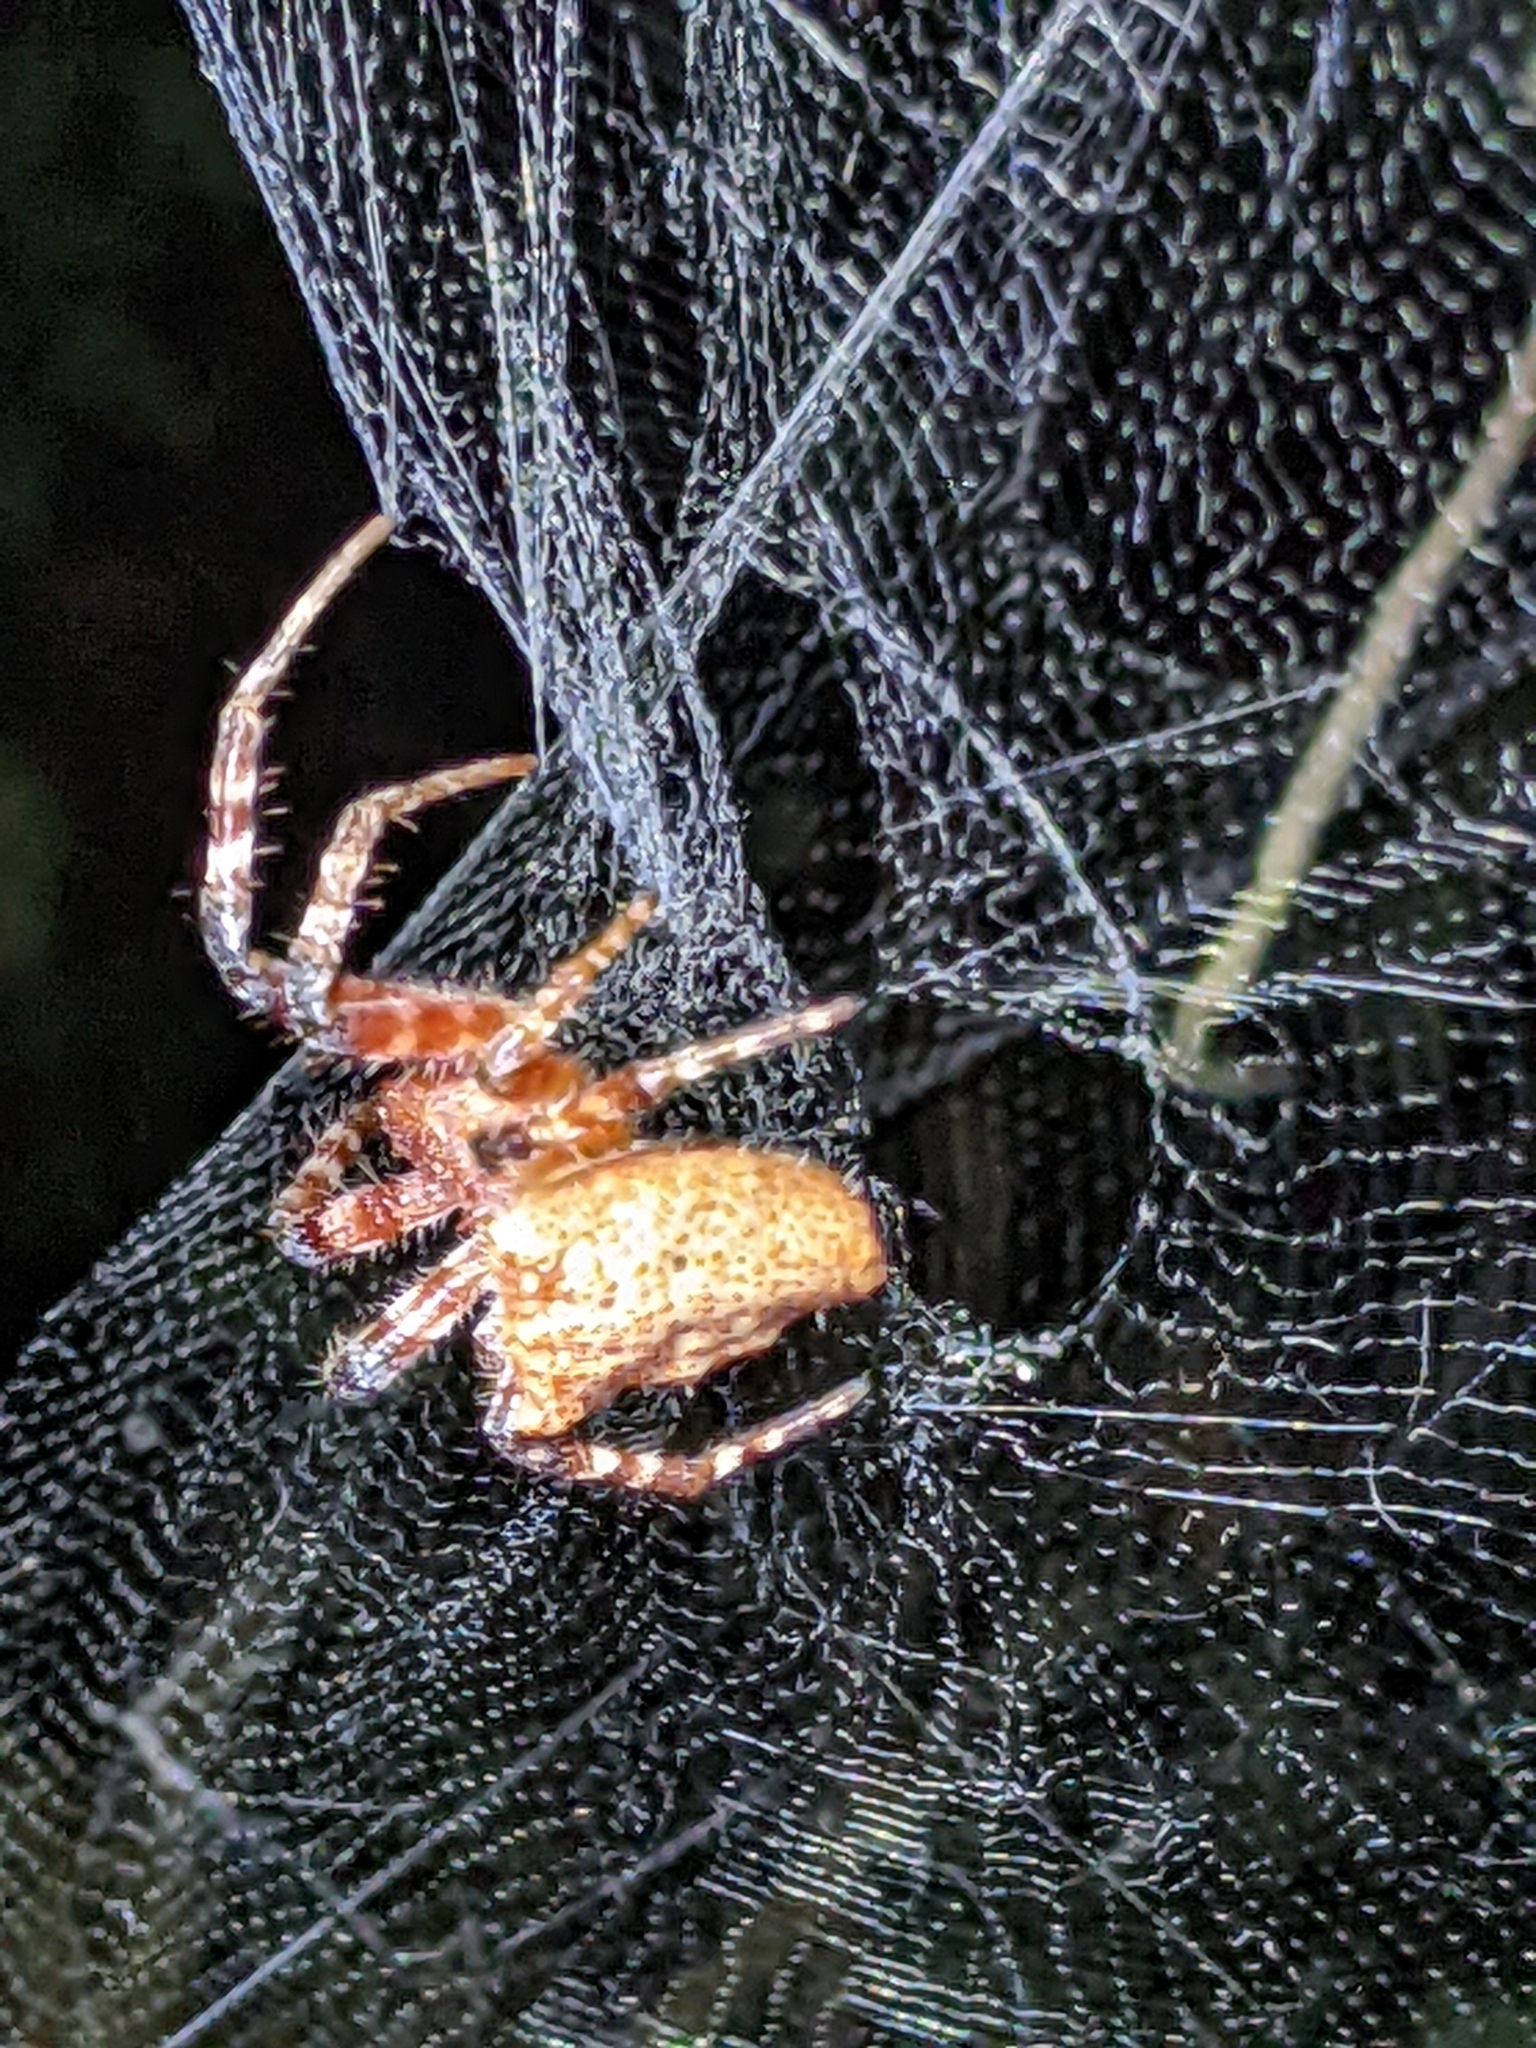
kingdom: Animalia
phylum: Arthropoda
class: Arachnida
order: Araneae
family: Araneidae
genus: Cyrtophora
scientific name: Cyrtophora unicolor
